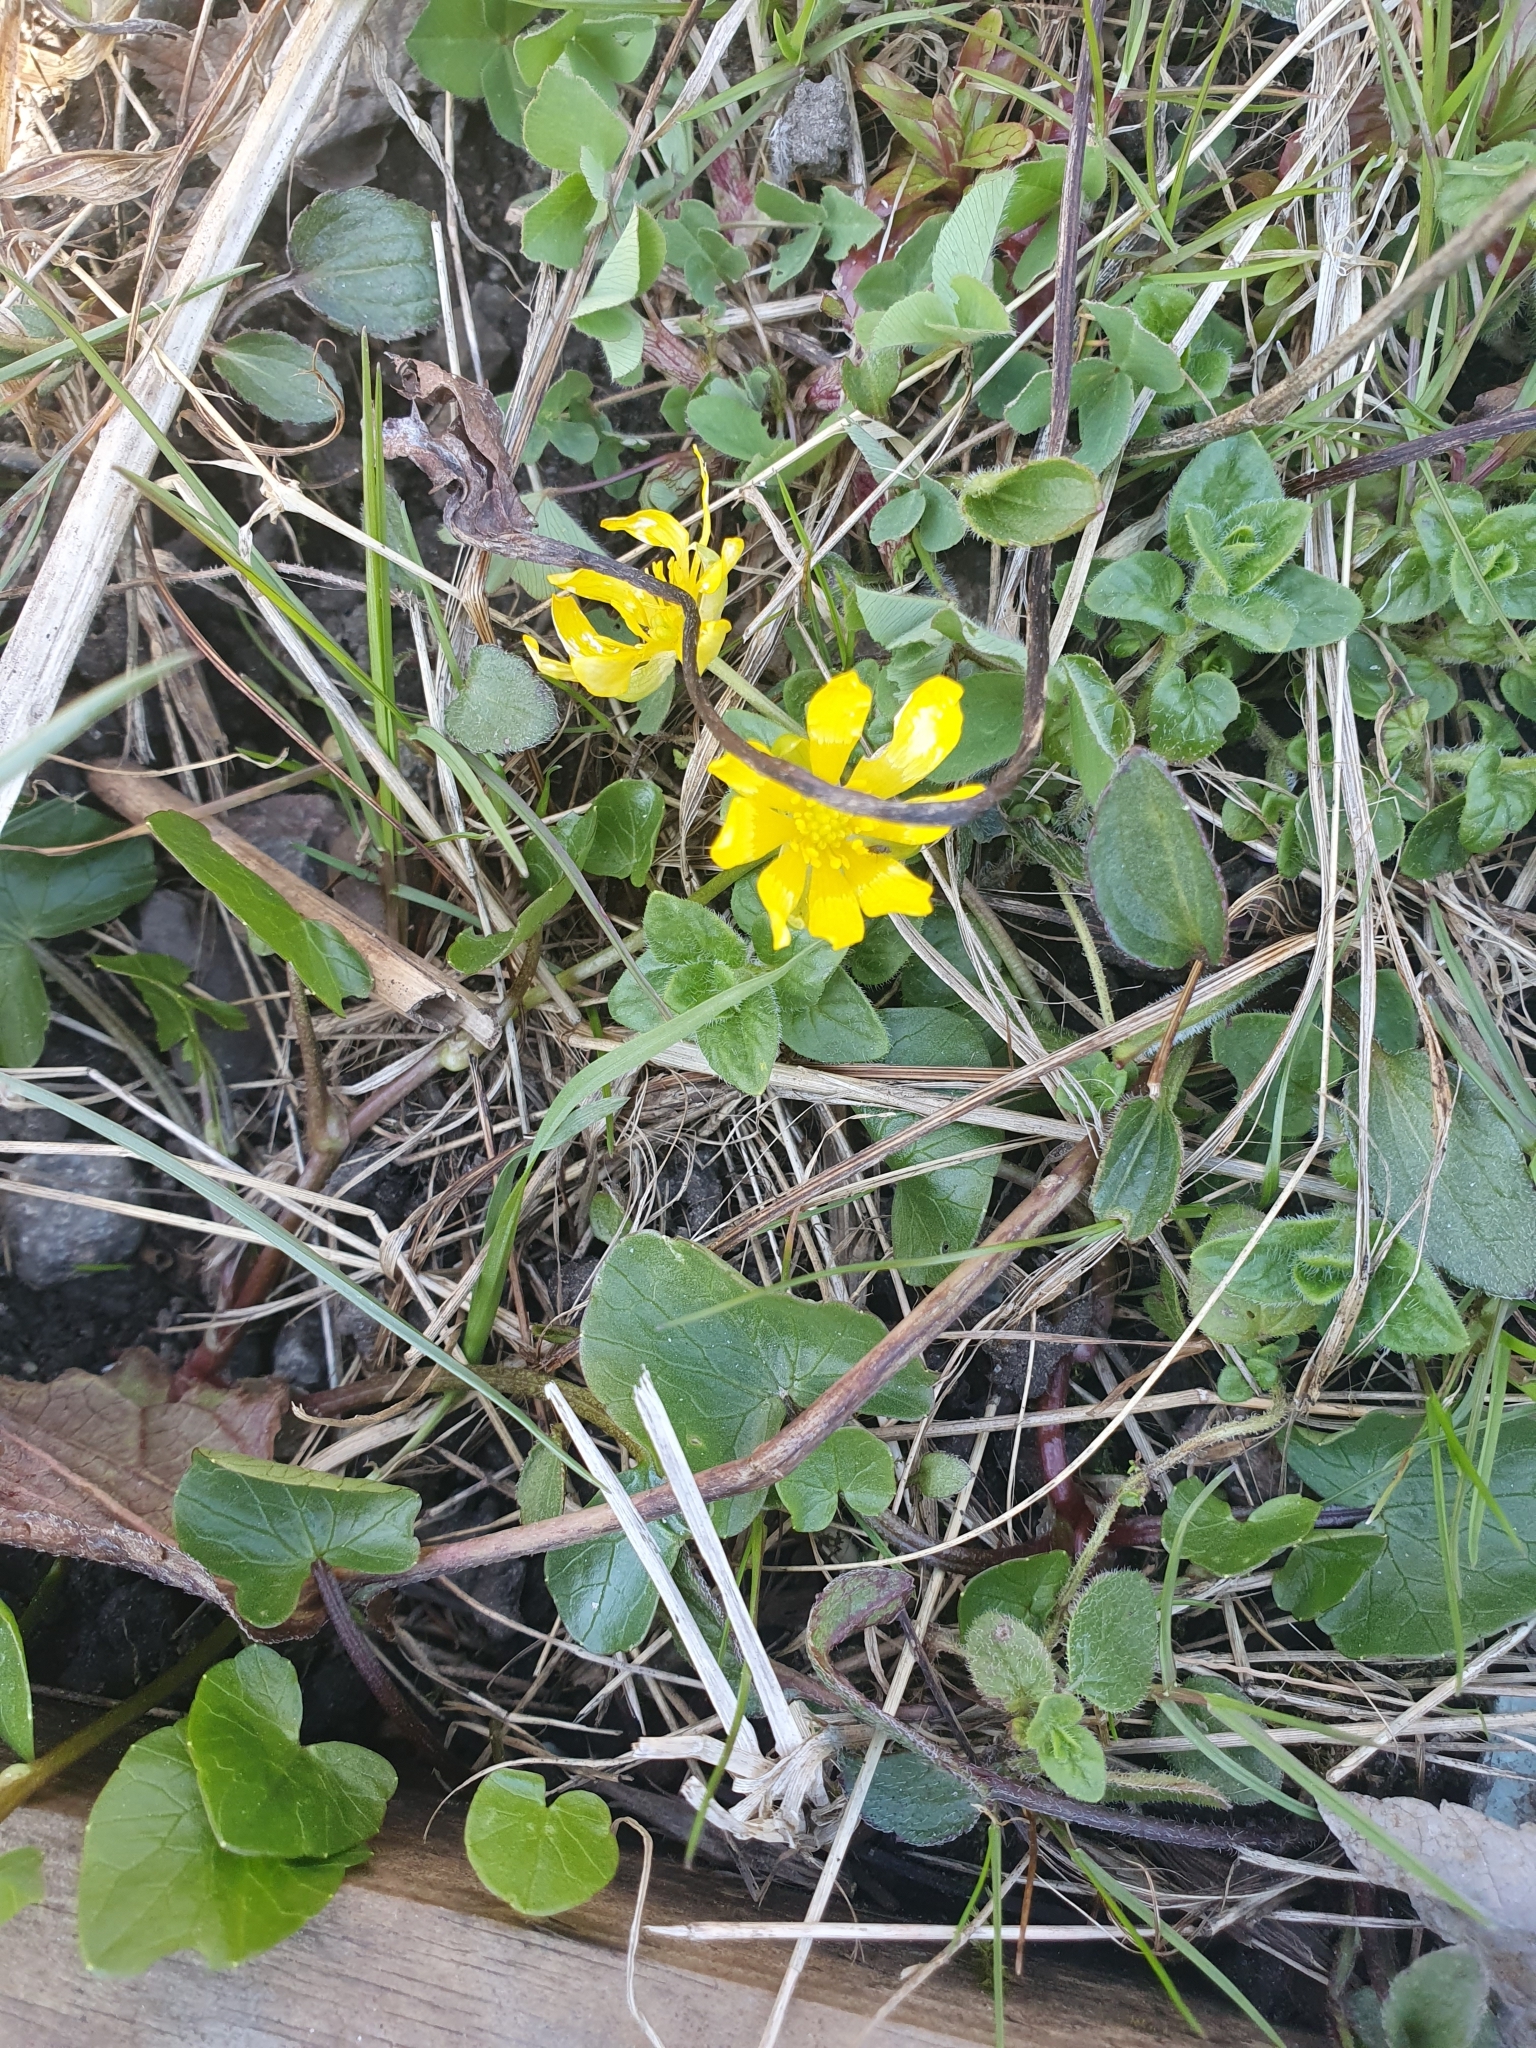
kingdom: Plantae
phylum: Tracheophyta
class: Magnoliopsida
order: Ranunculales
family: Ranunculaceae
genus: Ficaria
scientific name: Ficaria verna
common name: Lesser celandine
